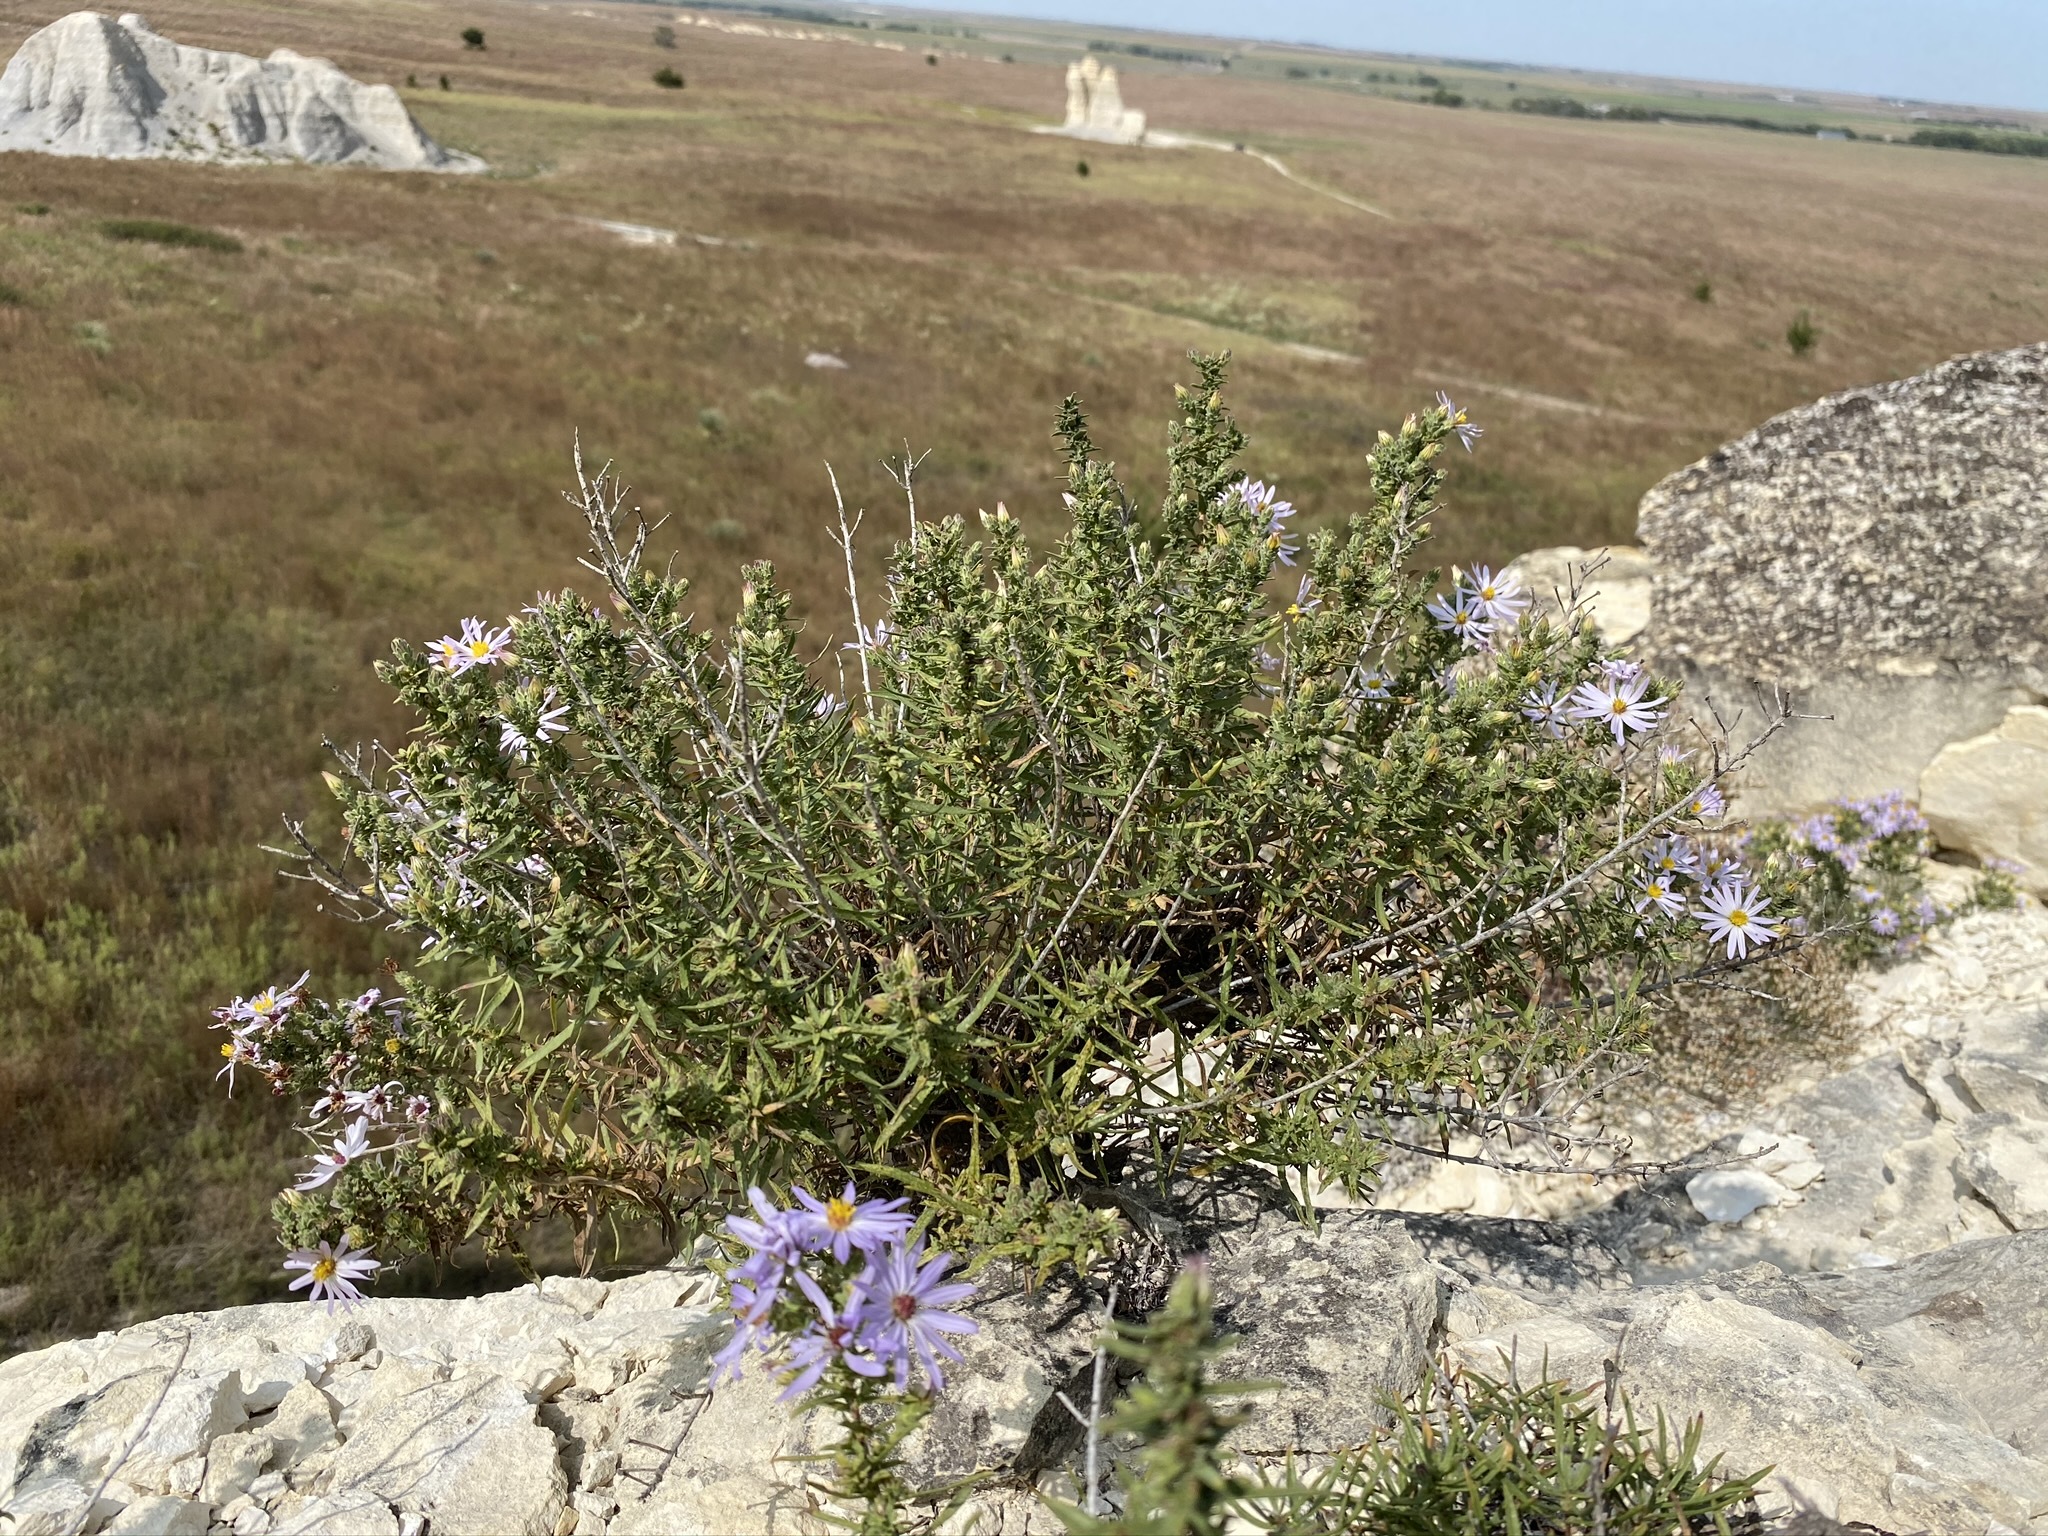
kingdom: Plantae
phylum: Tracheophyta
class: Magnoliopsida
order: Asterales
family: Asteraceae
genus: Symphyotrichum
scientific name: Symphyotrichum fendleri
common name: Fendler's aster
